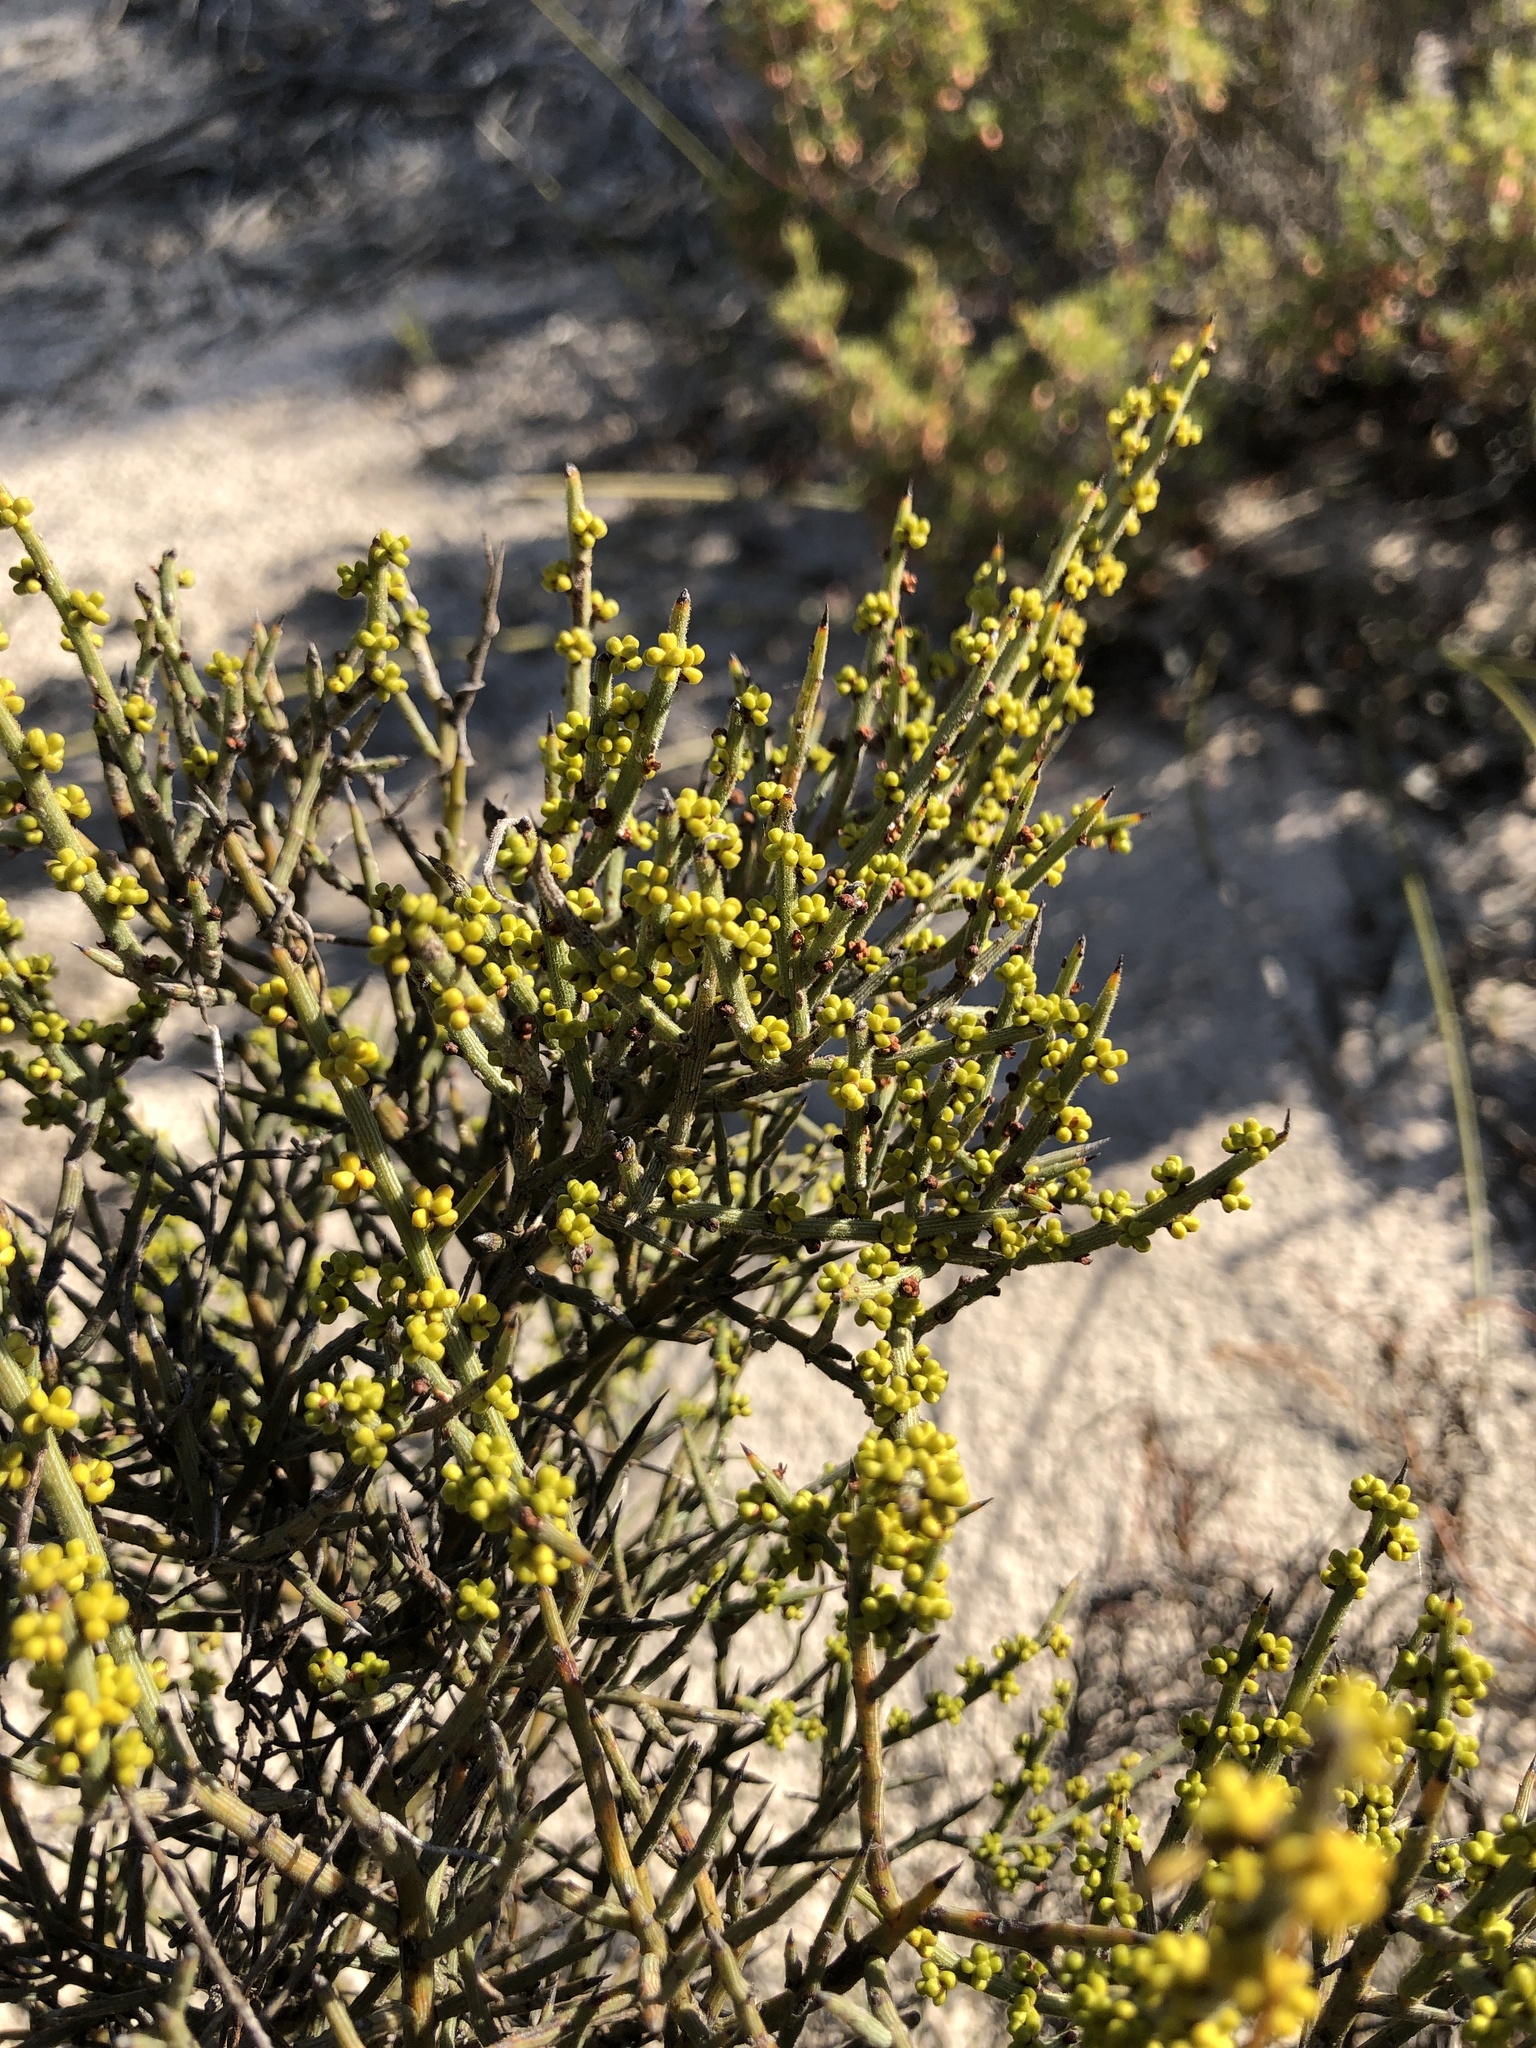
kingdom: Plantae
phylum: Tracheophyta
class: Magnoliopsida
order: Fabales
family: Fabaceae
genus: Acacia
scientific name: Acacia spinescens
